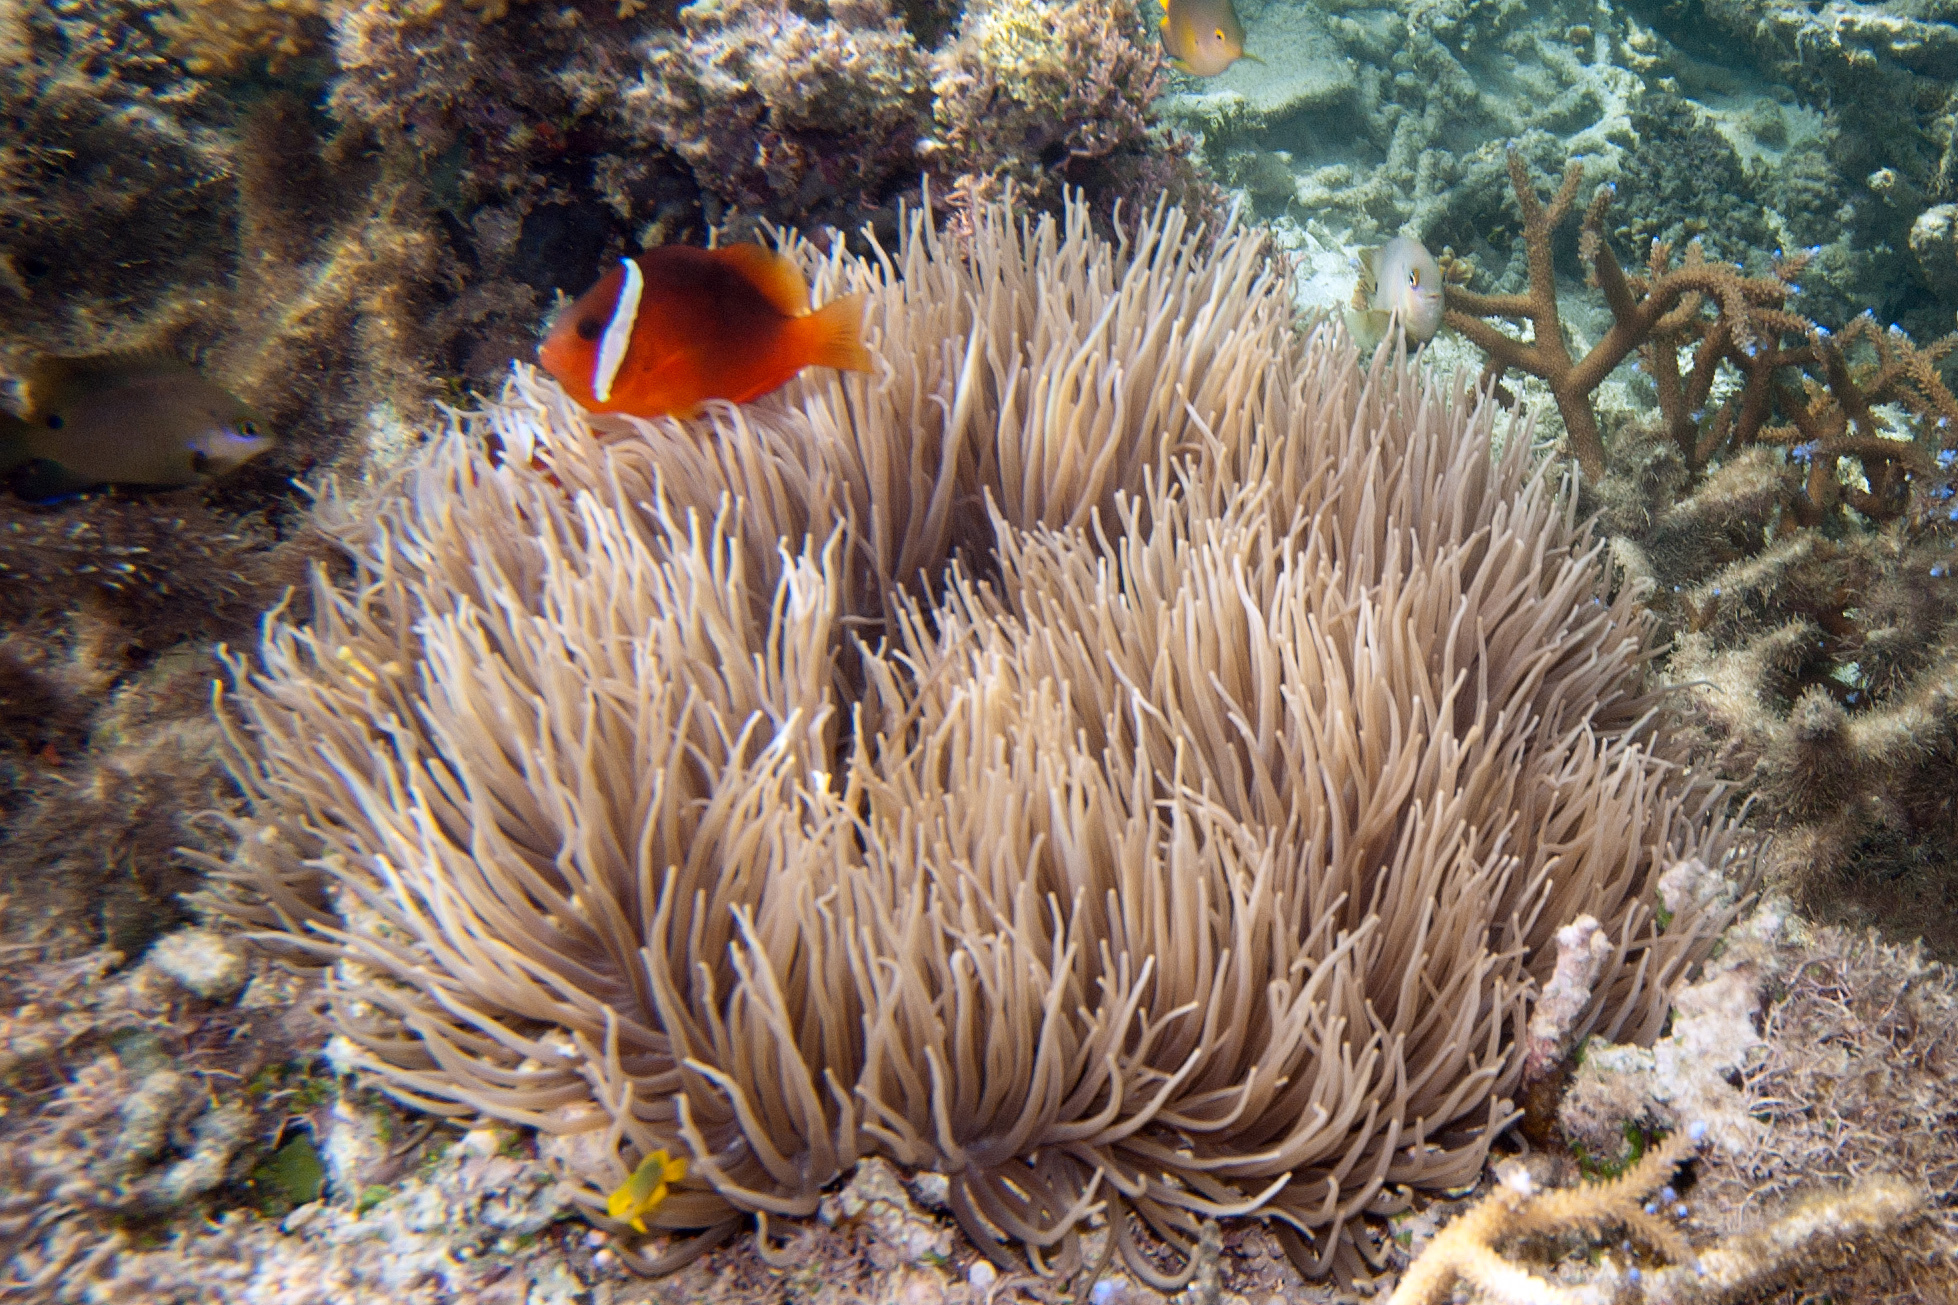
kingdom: Animalia
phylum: Cnidaria
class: Anthozoa
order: Actiniaria
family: Stichodactylidae
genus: Radianthus
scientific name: Radianthus crispa
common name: Leather anemone
